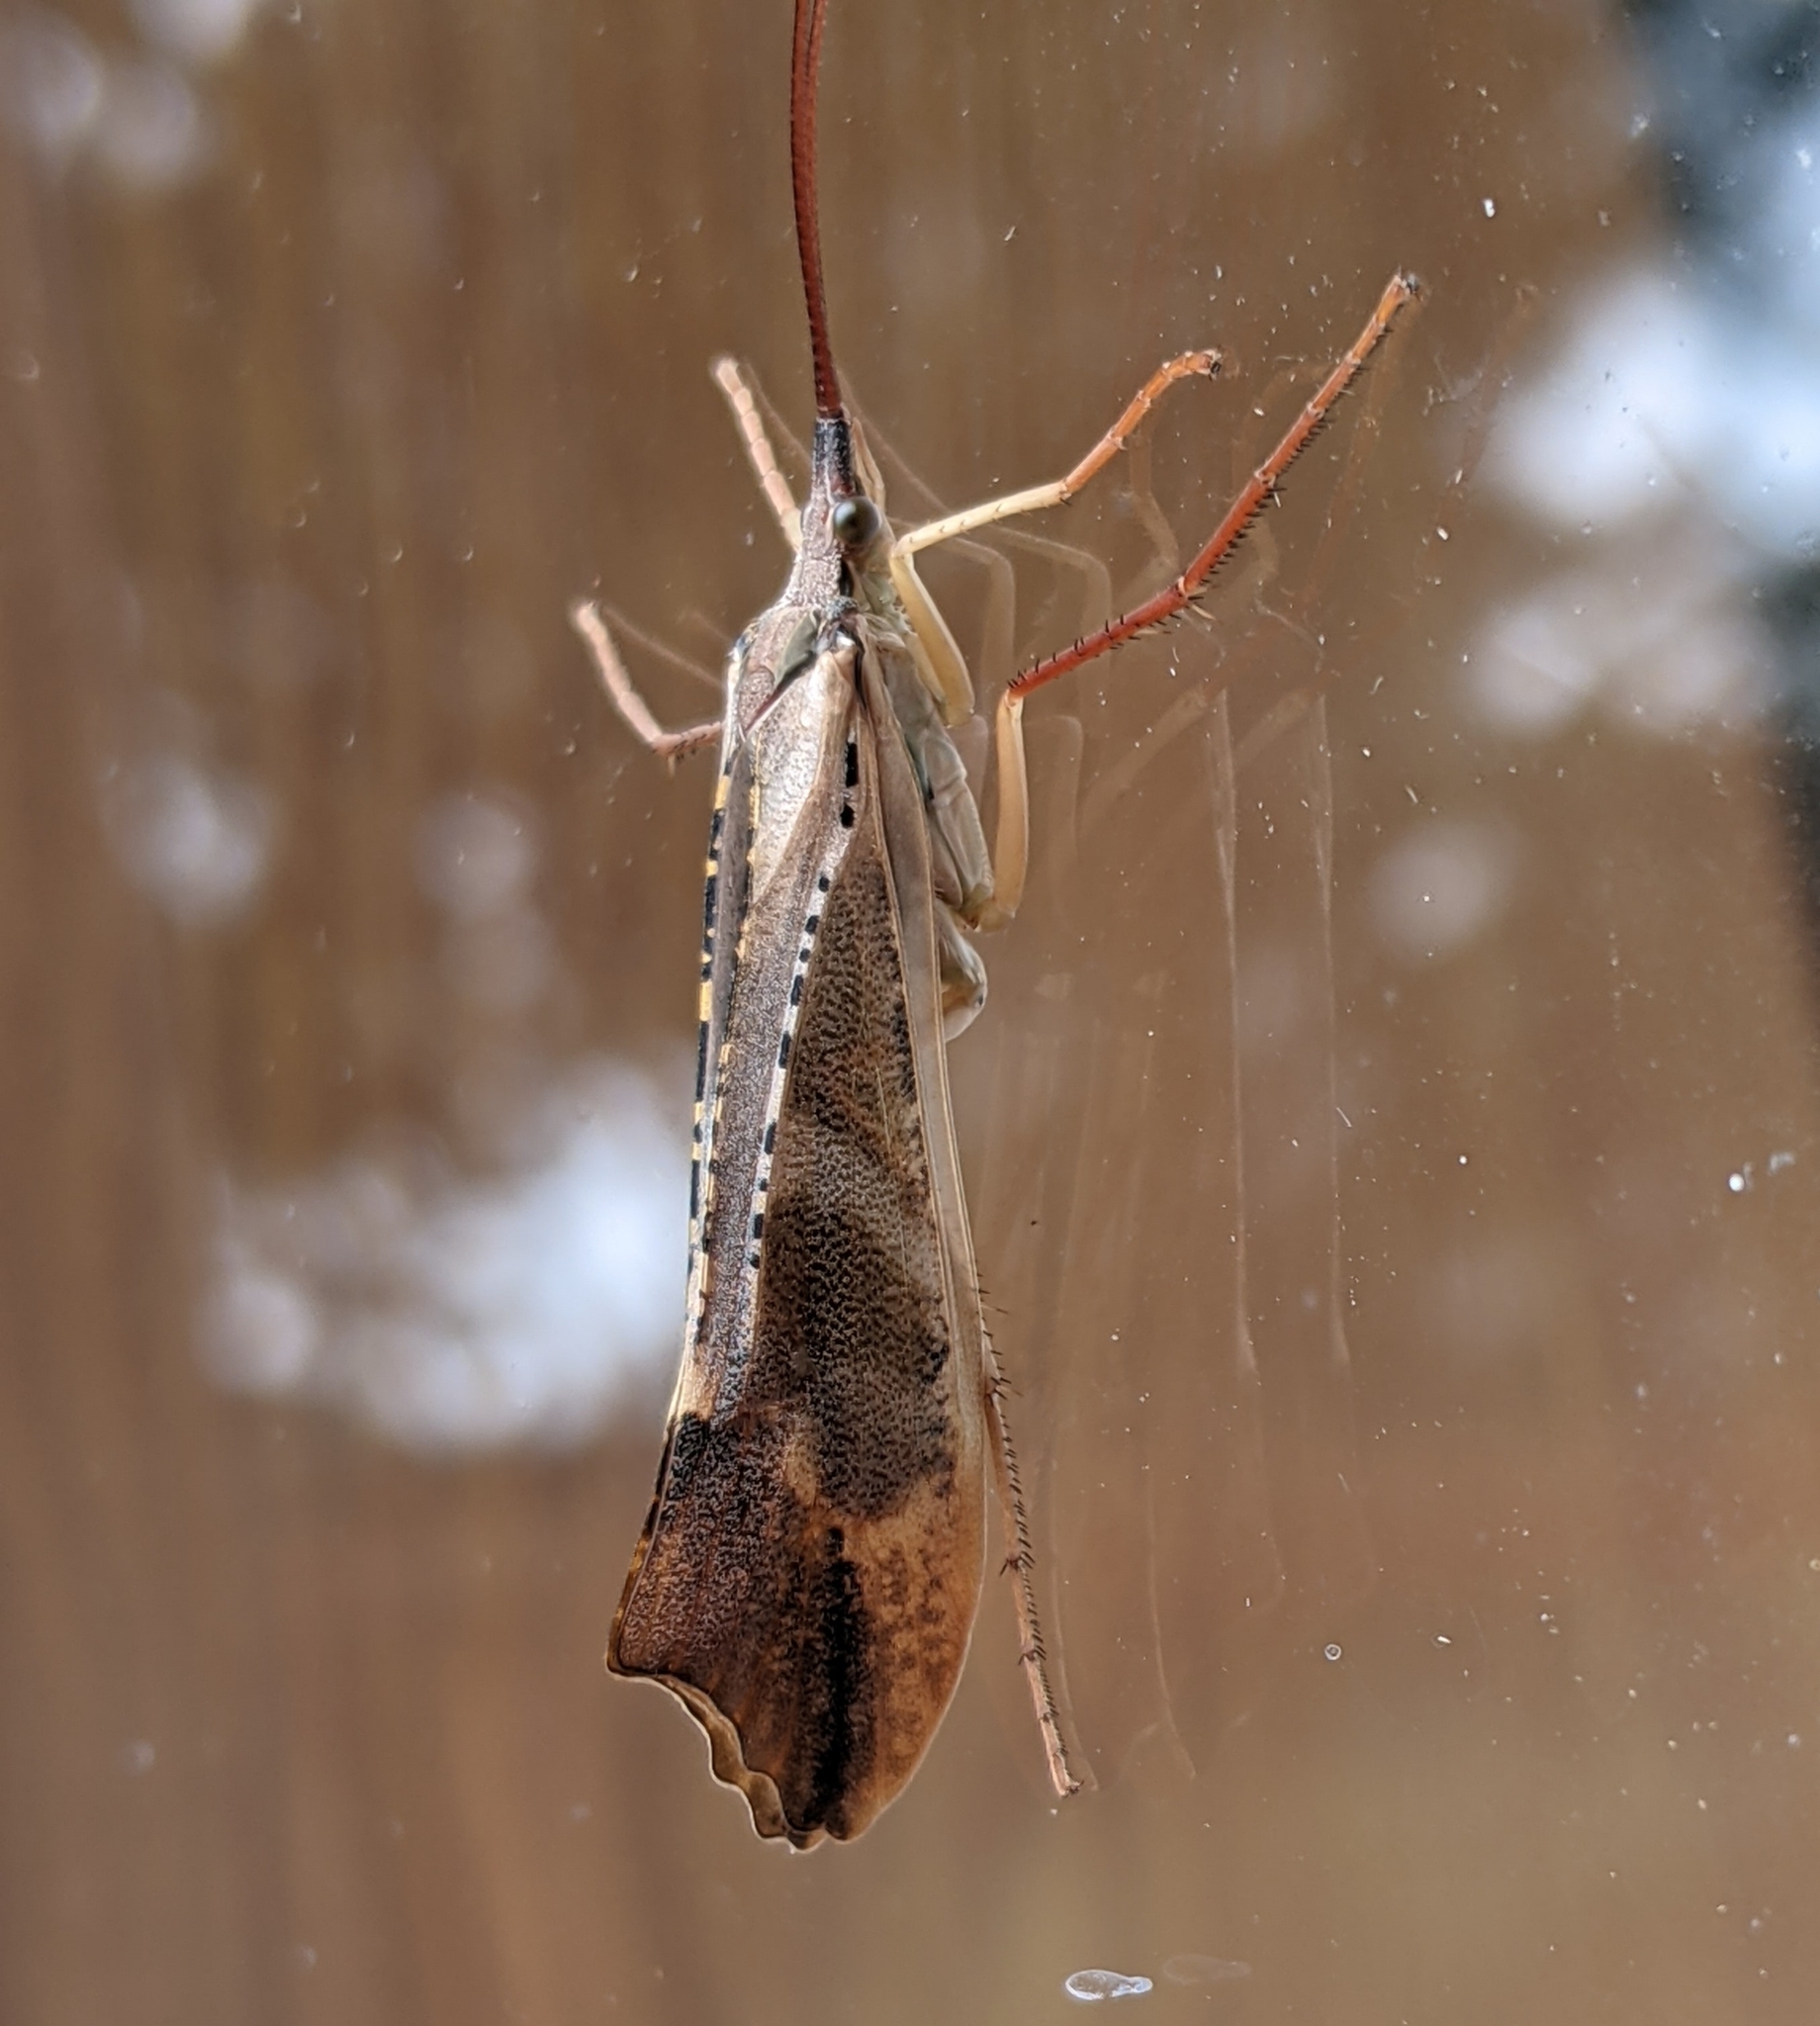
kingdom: Animalia
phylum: Arthropoda
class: Insecta
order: Trichoptera
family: Limnephilidae
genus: Nemotaulius
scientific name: Nemotaulius hostilis
